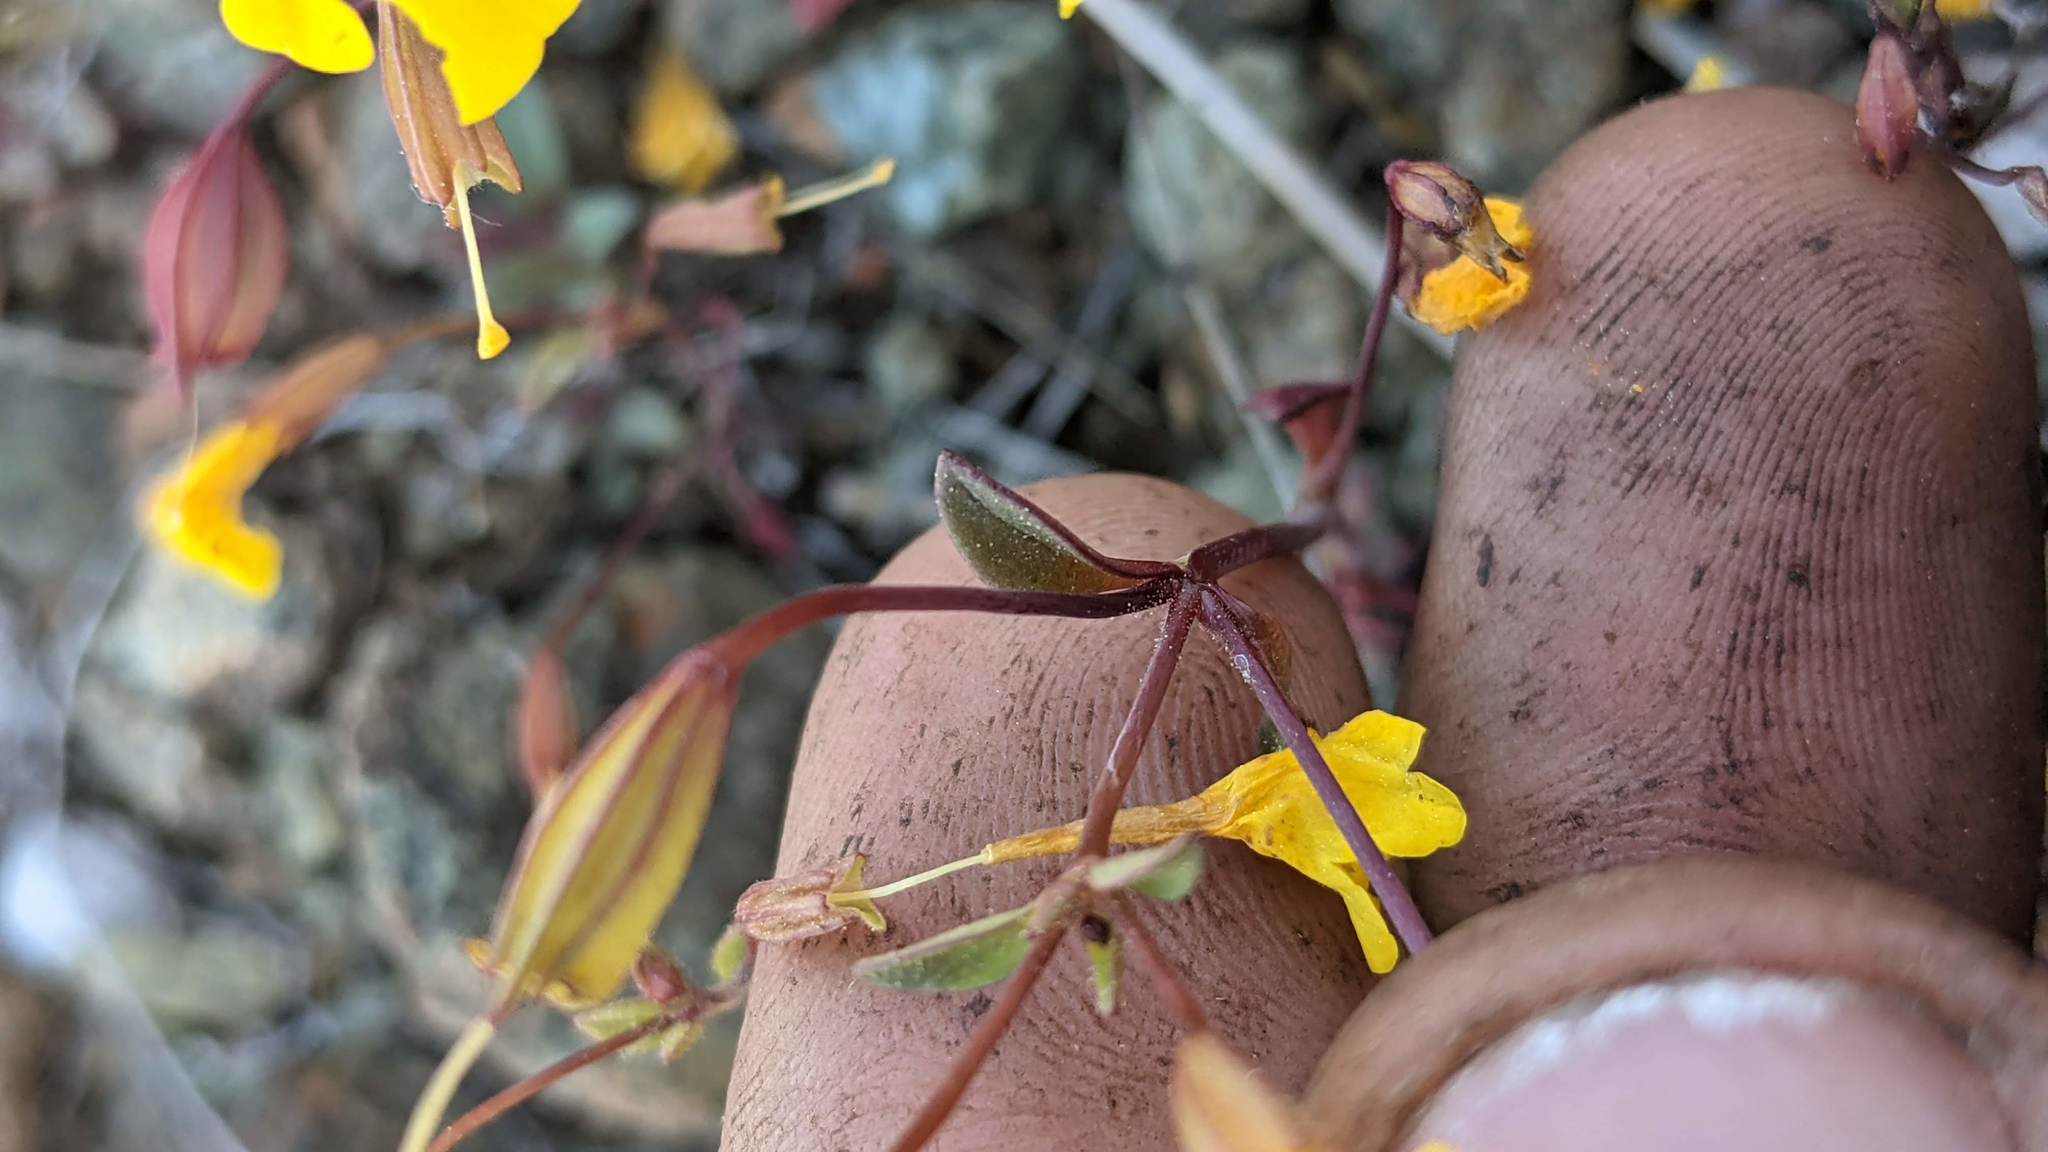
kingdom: Plantae
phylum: Tracheophyta
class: Magnoliopsida
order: Lamiales
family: Phrymaceae
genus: Erythranthe
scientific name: Erythranthe nudata
